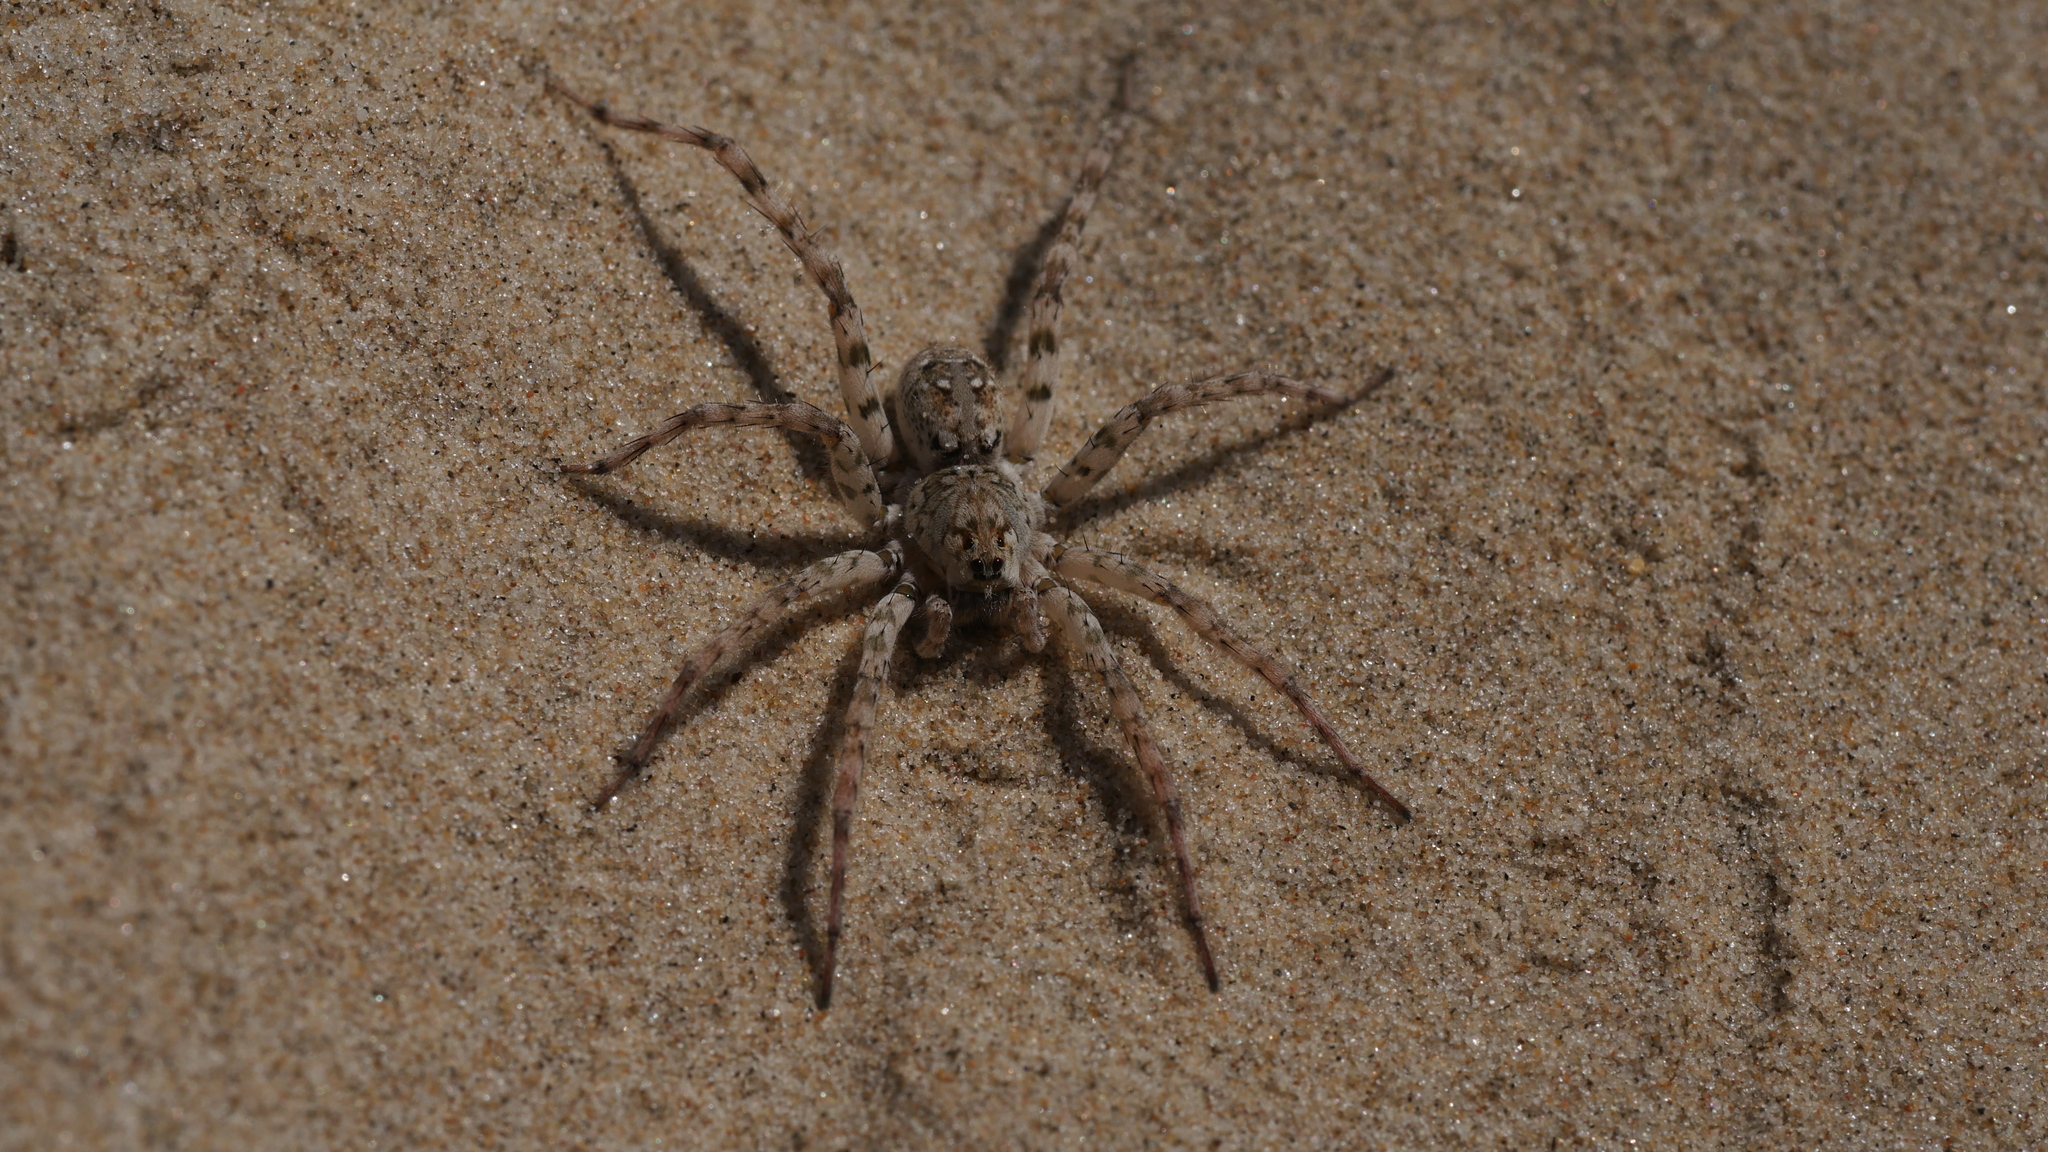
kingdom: Animalia
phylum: Arthropoda
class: Arachnida
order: Araneae
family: Lycosidae
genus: Arctosa
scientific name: Arctosa littoralis
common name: Wolf spiders
